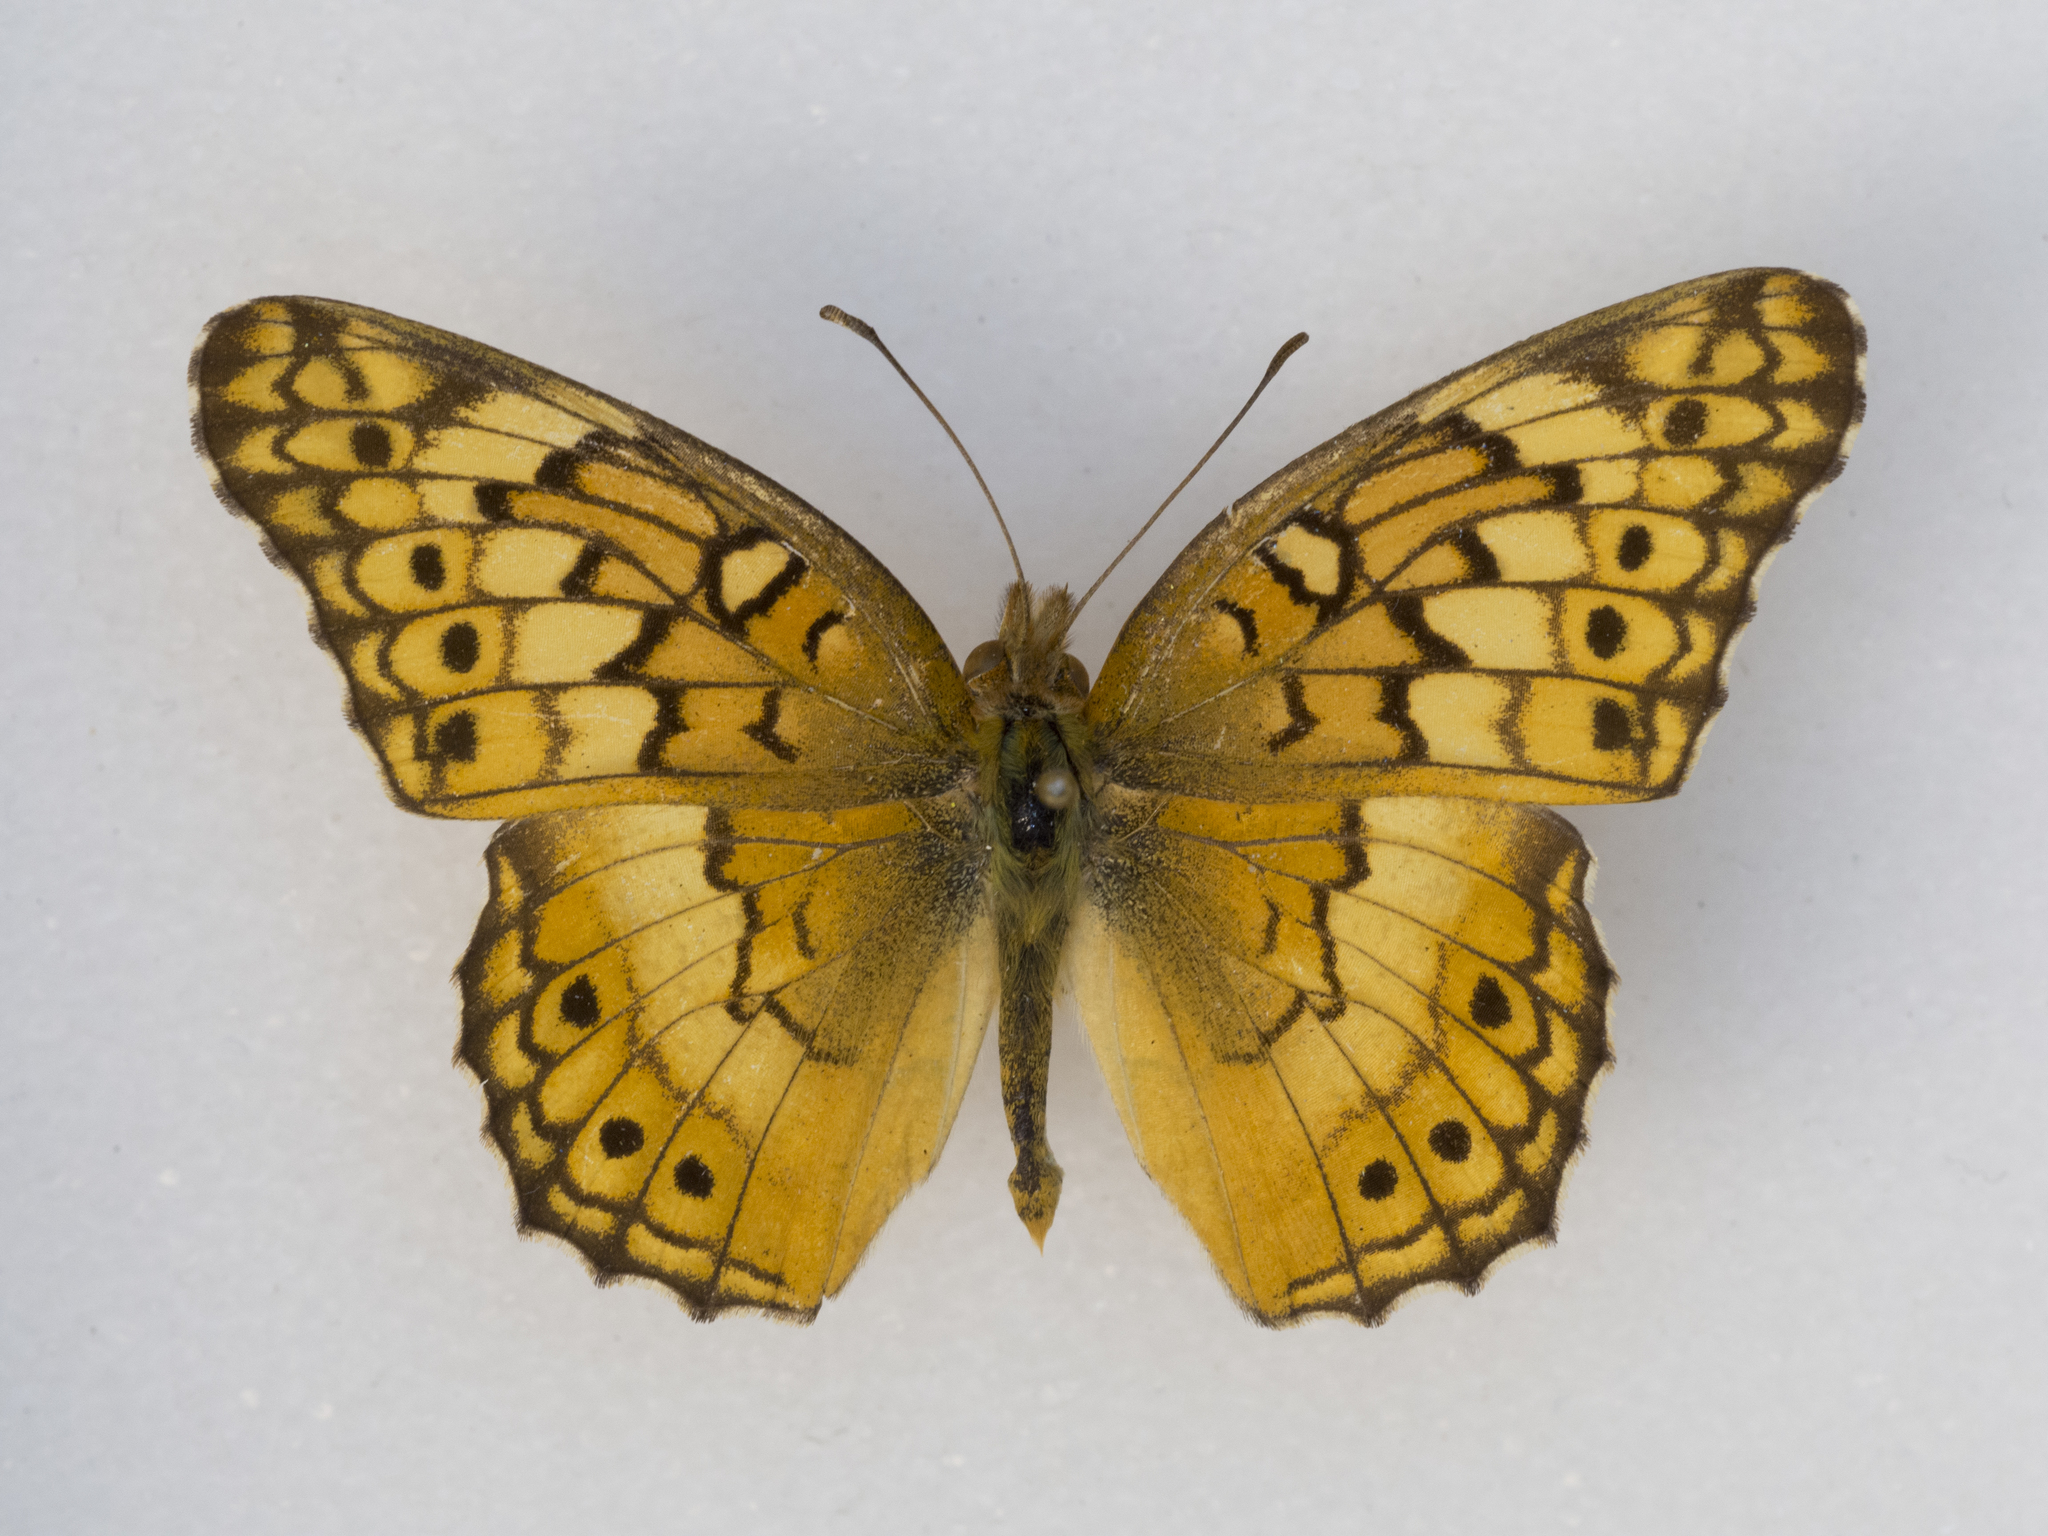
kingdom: Animalia
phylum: Arthropoda
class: Insecta
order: Lepidoptera
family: Nymphalidae
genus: Euptoieta
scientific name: Euptoieta claudia
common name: Variegated fritillary
